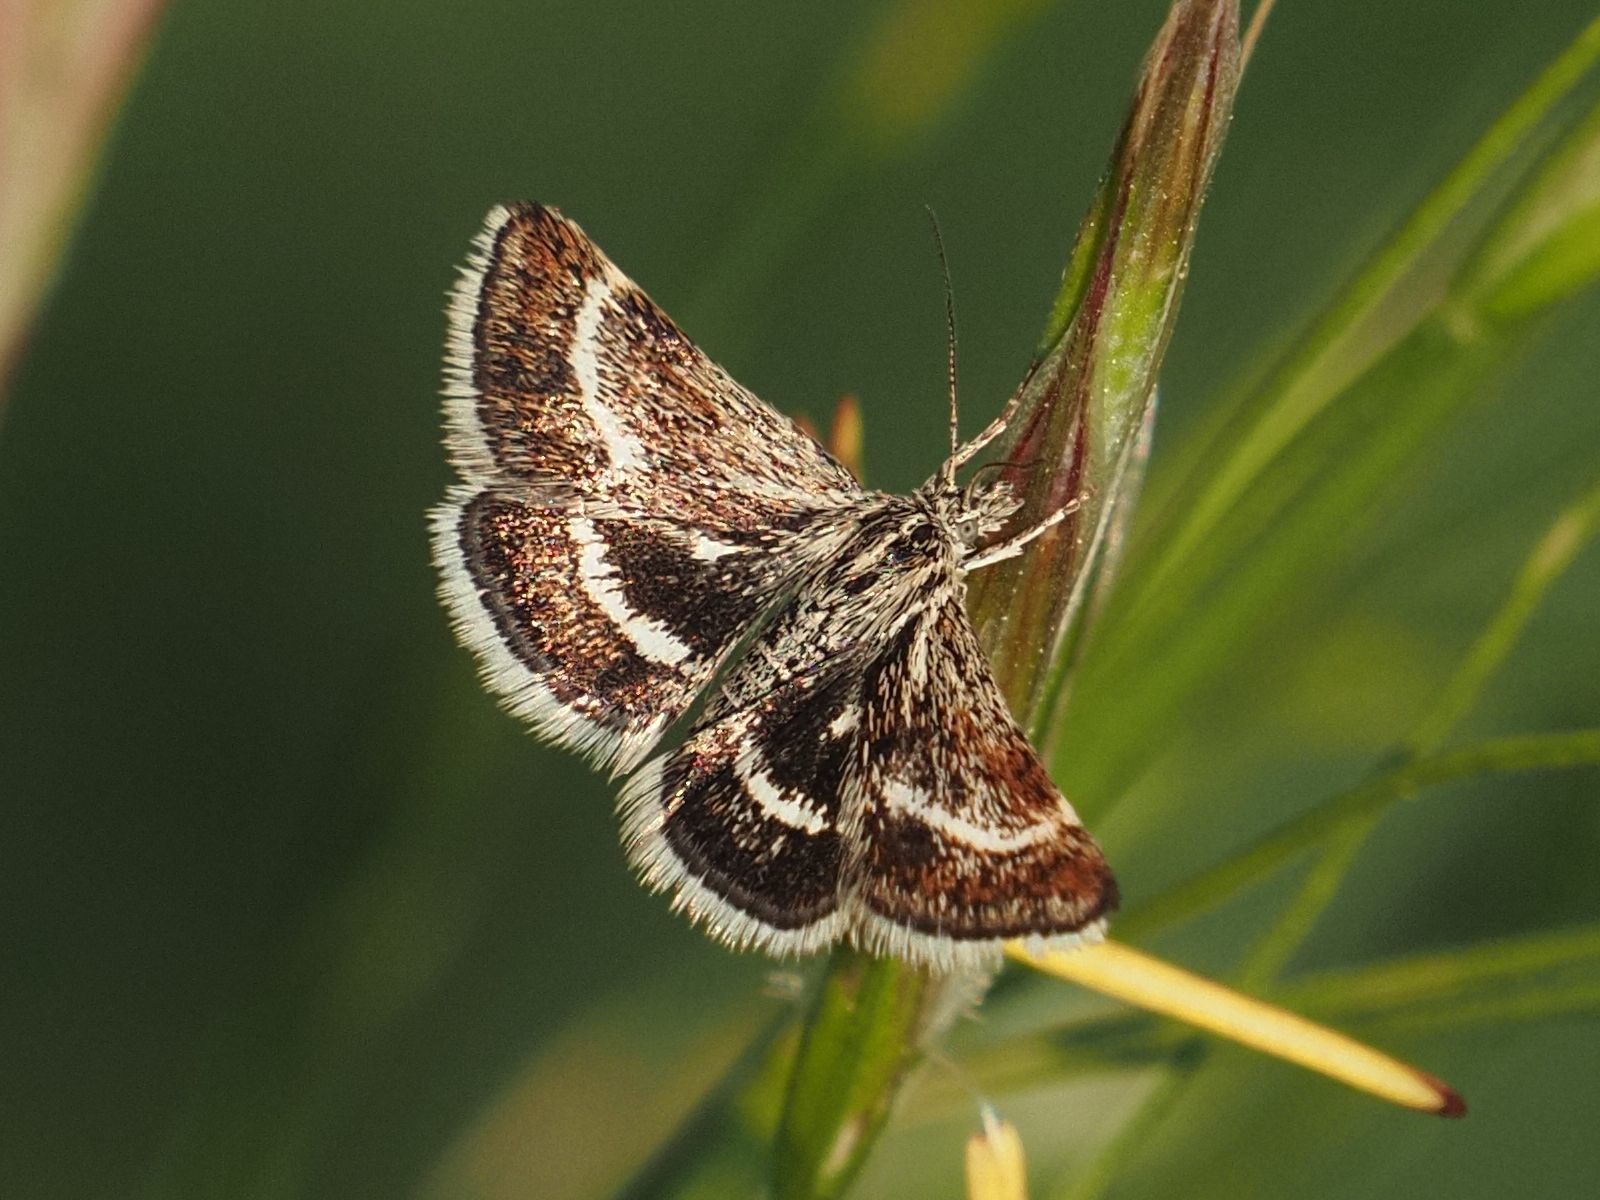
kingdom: Animalia
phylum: Arthropoda
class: Insecta
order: Lepidoptera
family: Crambidae
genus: Atralata
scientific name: Atralata albofascialis
